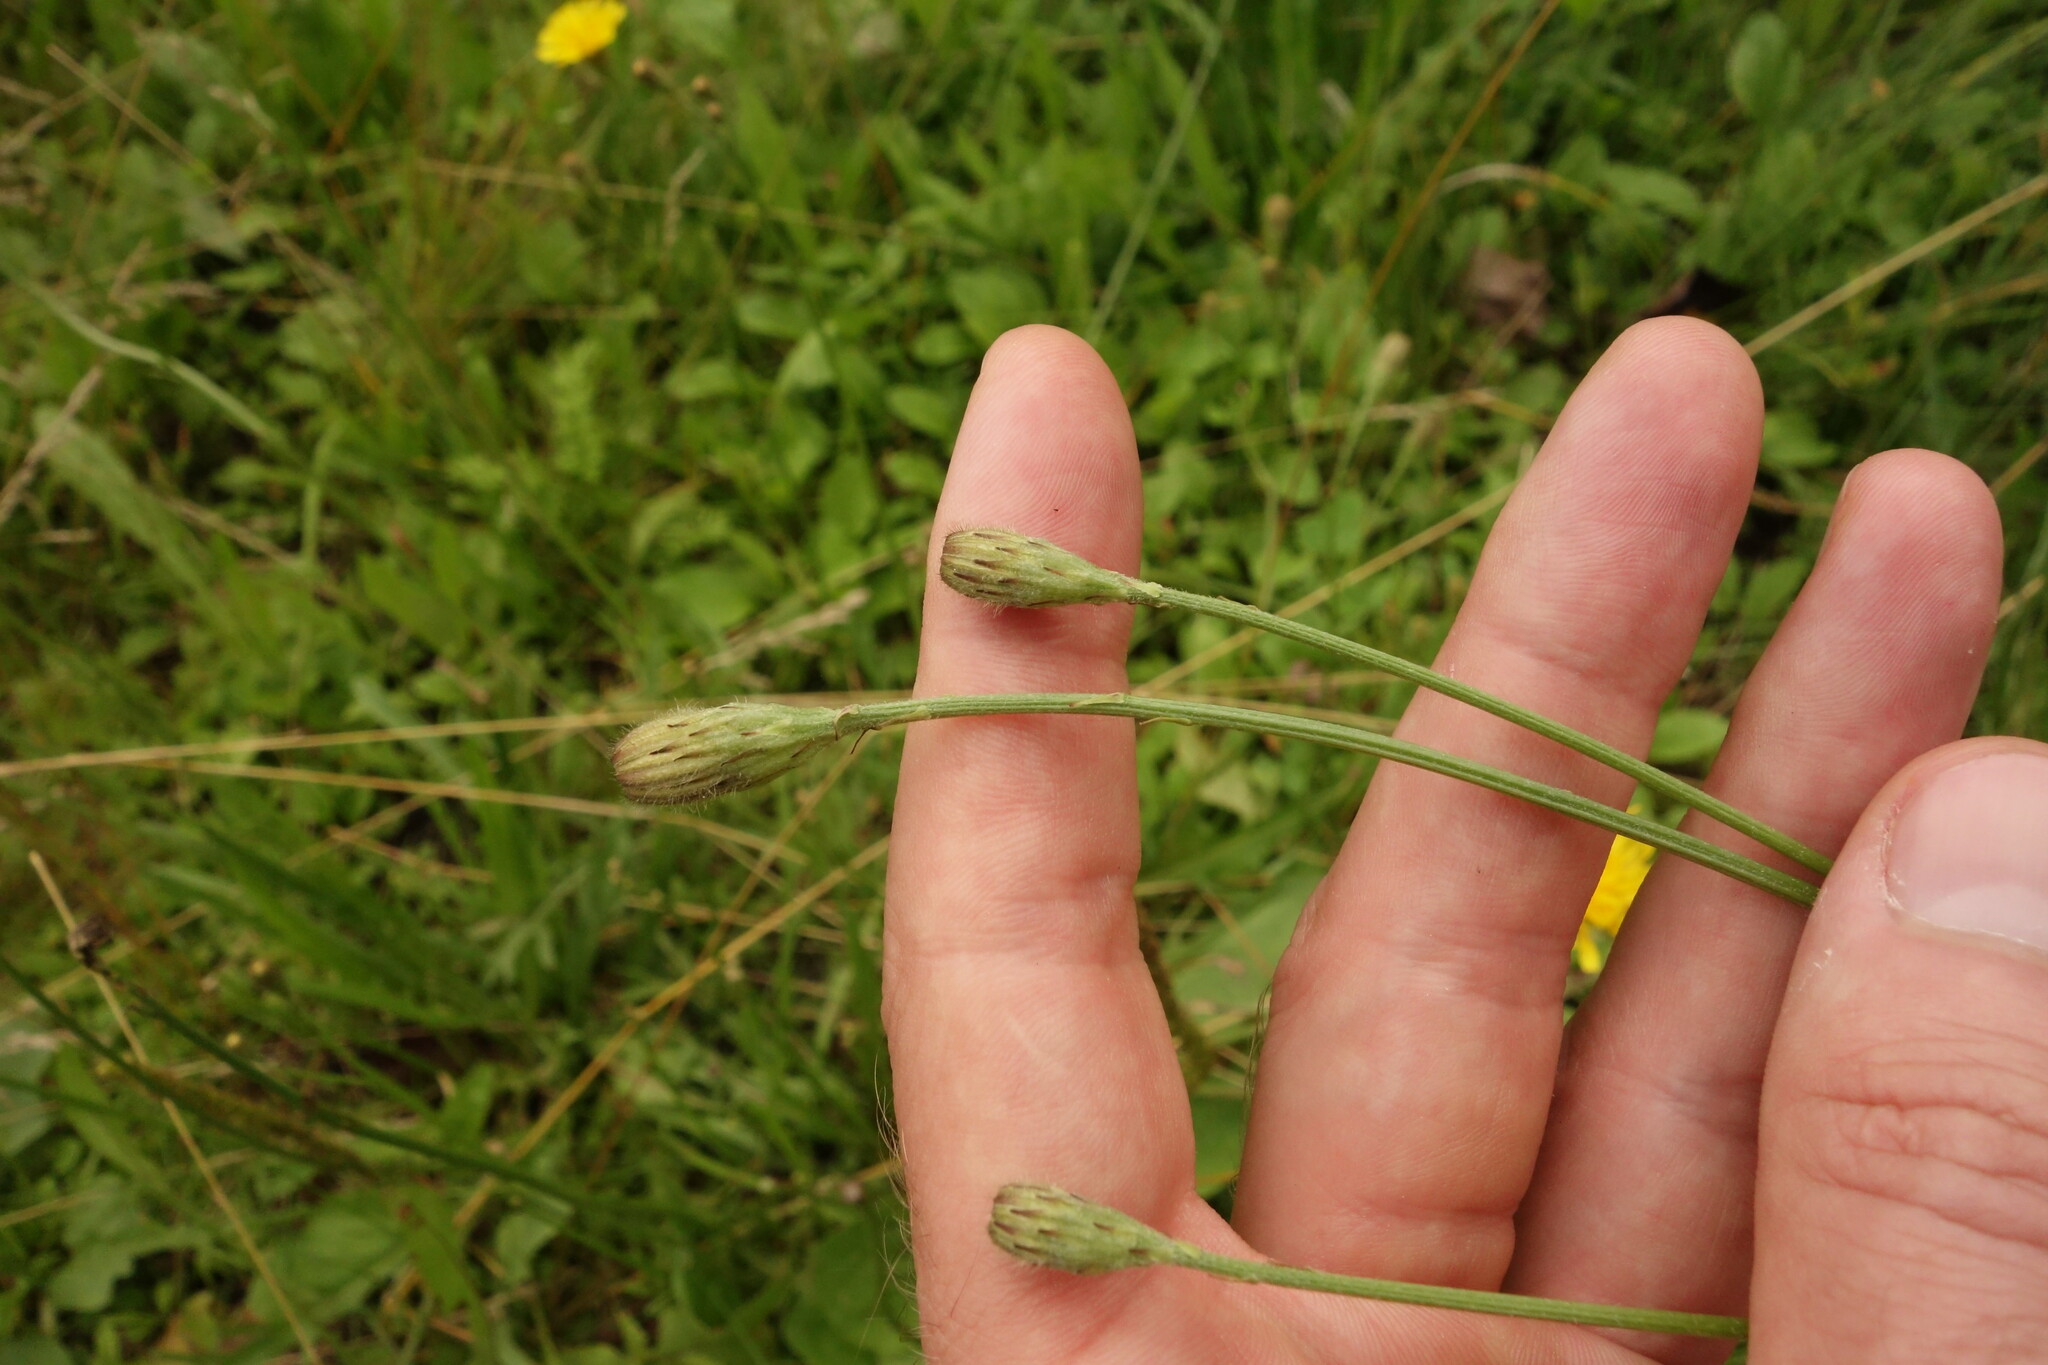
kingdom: Plantae
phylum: Tracheophyta
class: Magnoliopsida
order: Asterales
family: Asteraceae
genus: Scorzoneroides
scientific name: Scorzoneroides autumnalis
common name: Autumn hawkbit
